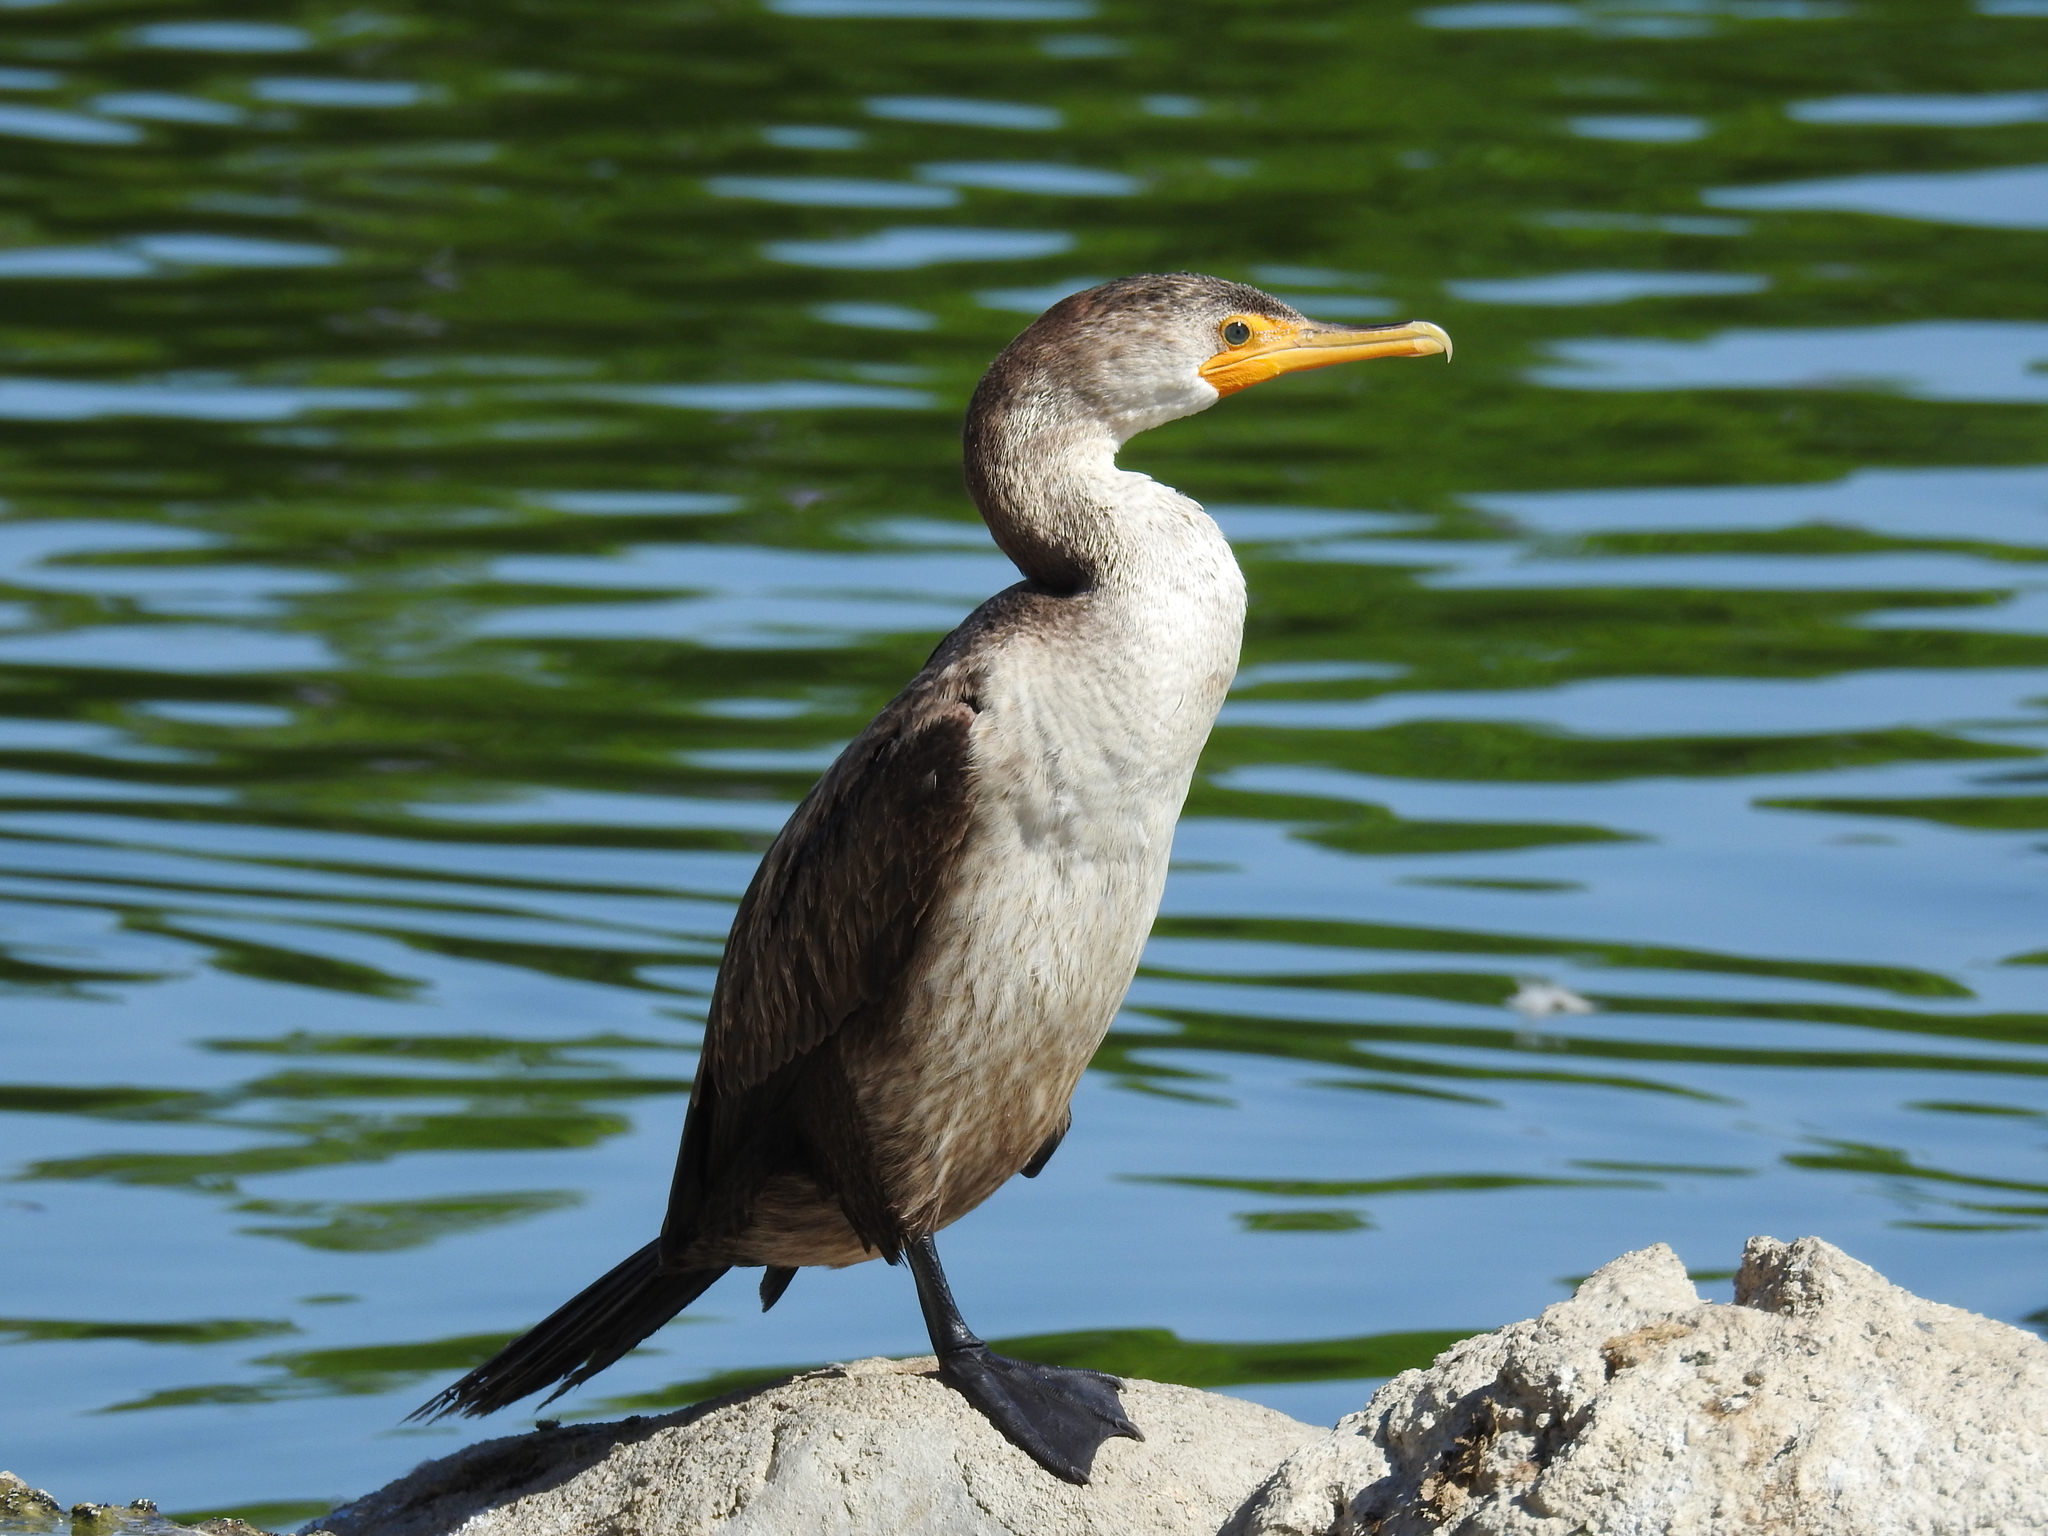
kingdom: Animalia
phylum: Chordata
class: Aves
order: Suliformes
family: Phalacrocoracidae
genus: Phalacrocorax
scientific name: Phalacrocorax auritus
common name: Double-crested cormorant
